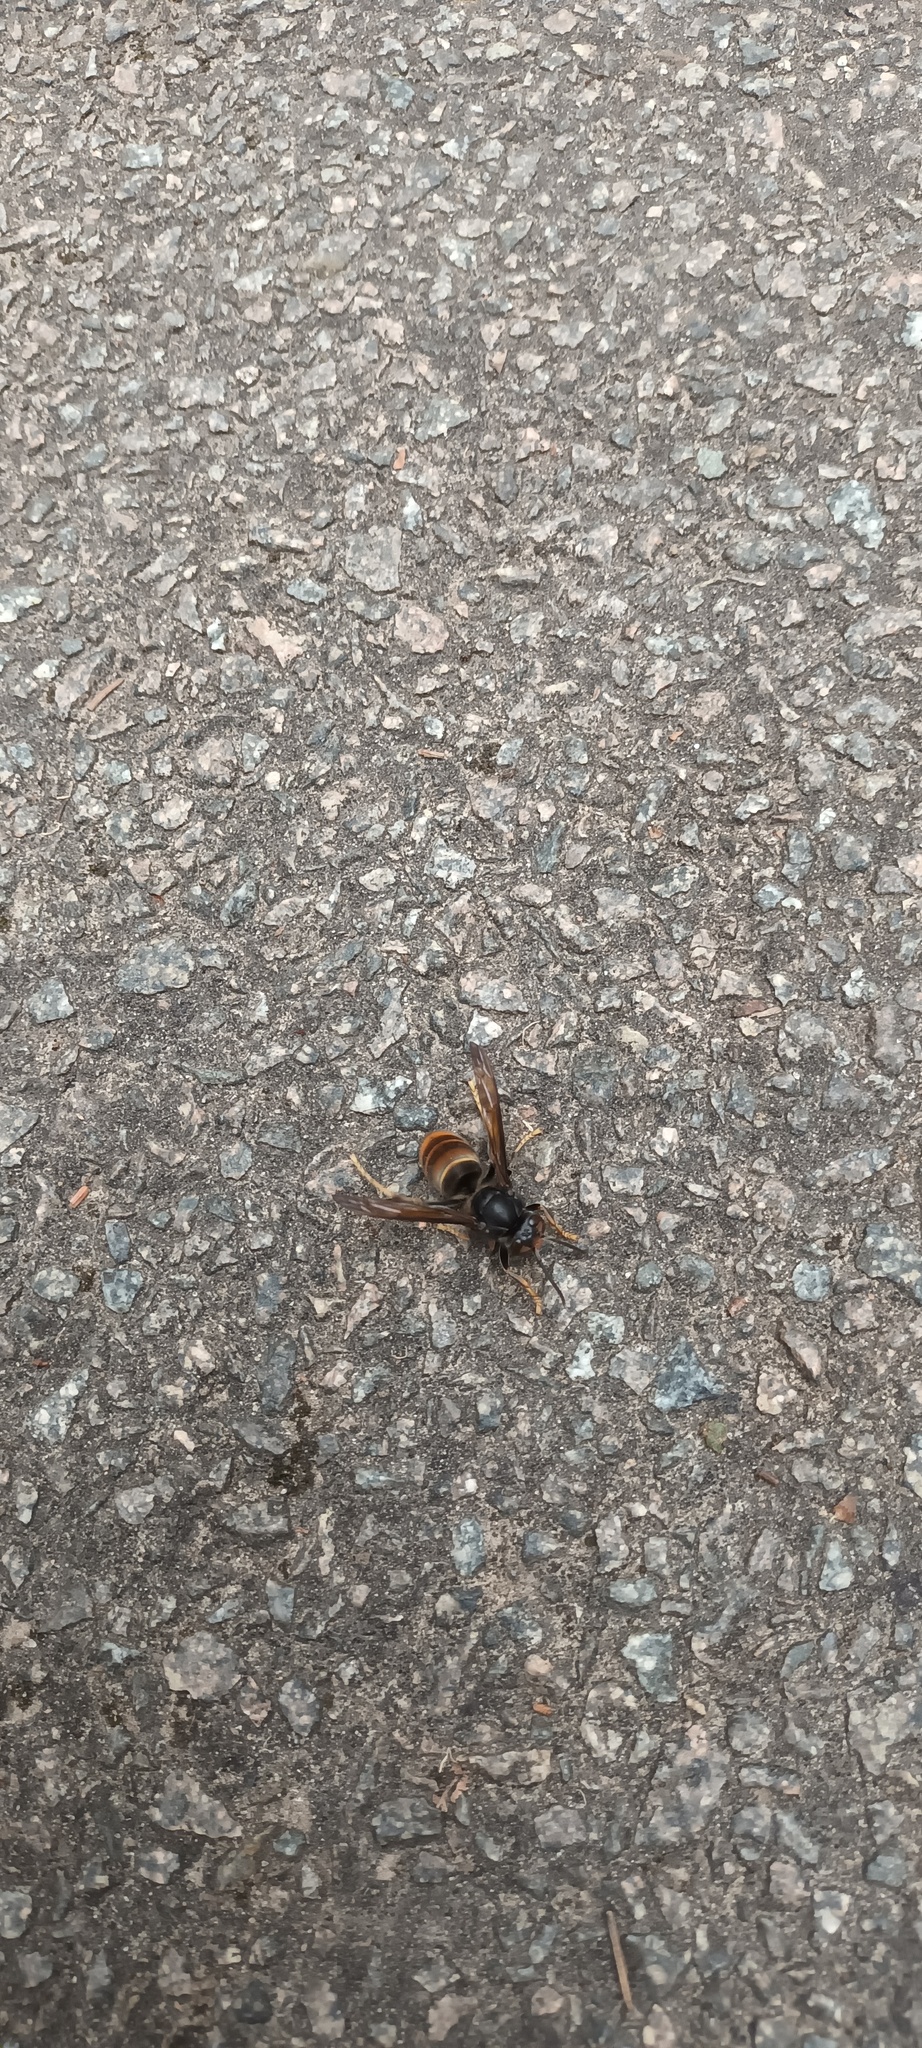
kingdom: Animalia
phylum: Arthropoda
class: Insecta
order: Hymenoptera
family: Vespidae
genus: Vespa
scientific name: Vespa velutina
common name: Asian hornet
